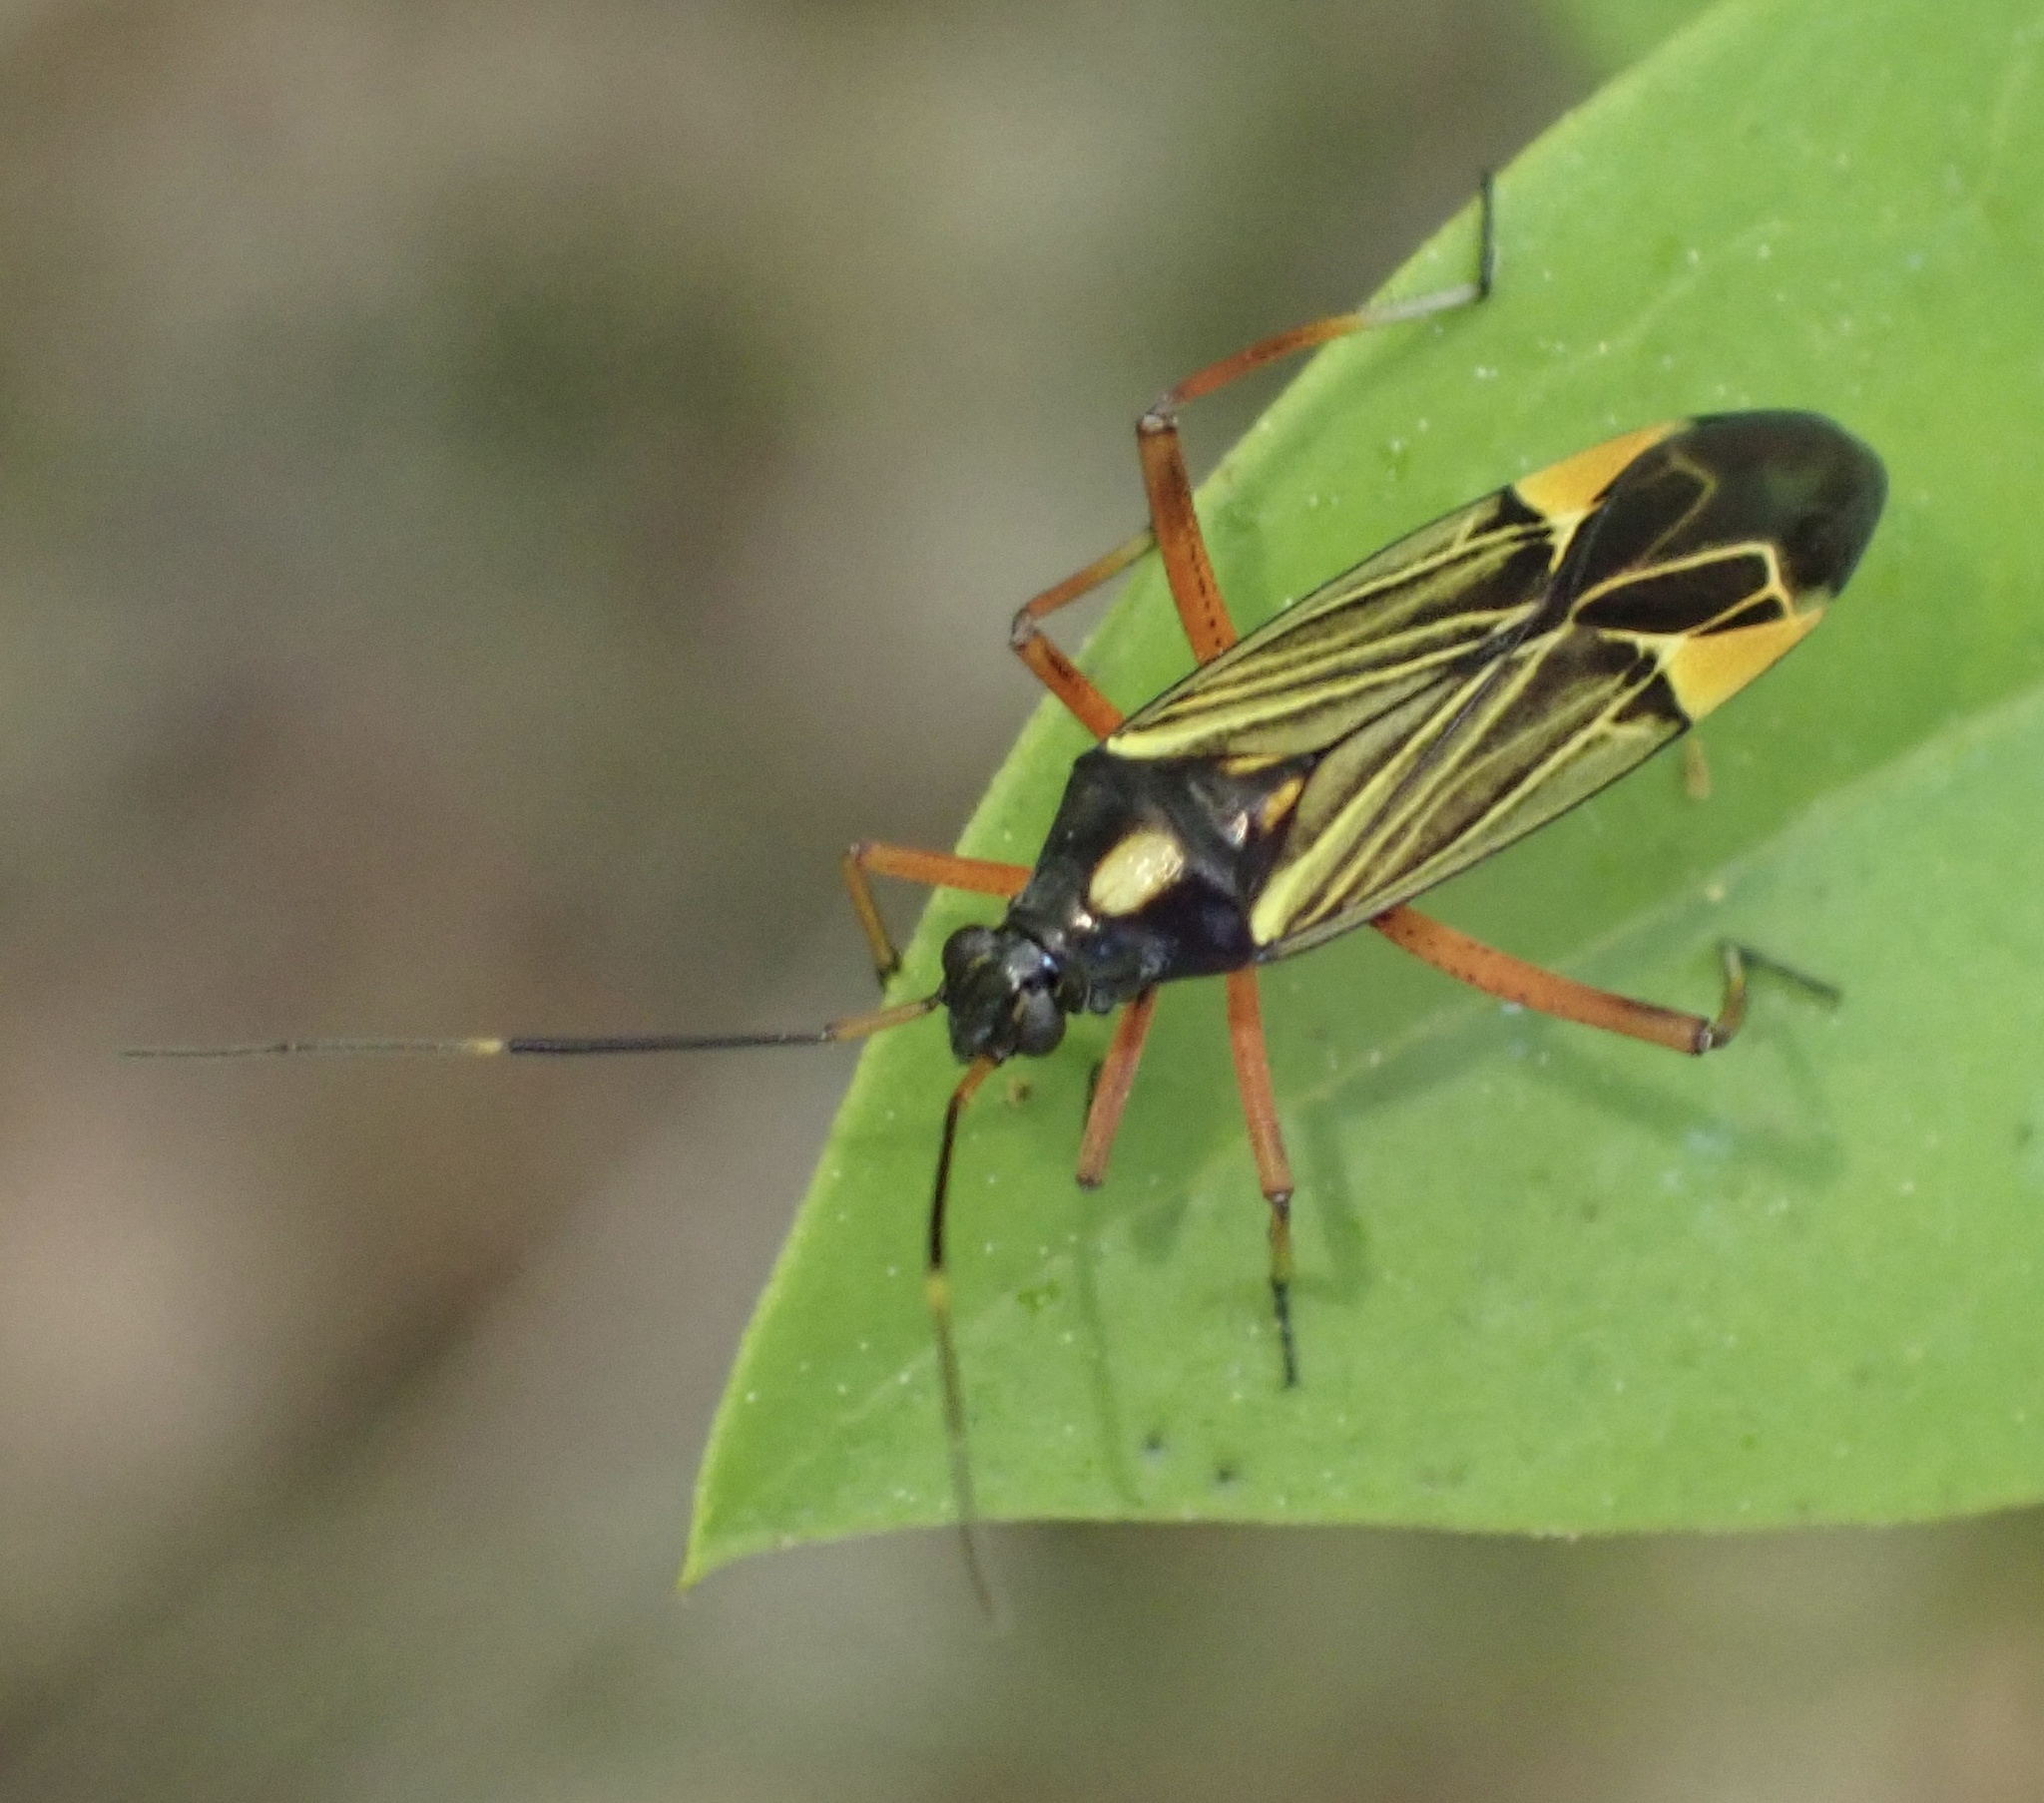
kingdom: Animalia
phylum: Arthropoda
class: Insecta
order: Hemiptera
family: Miridae
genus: Miris
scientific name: Miris striatus
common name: Fine streaked bugkin
